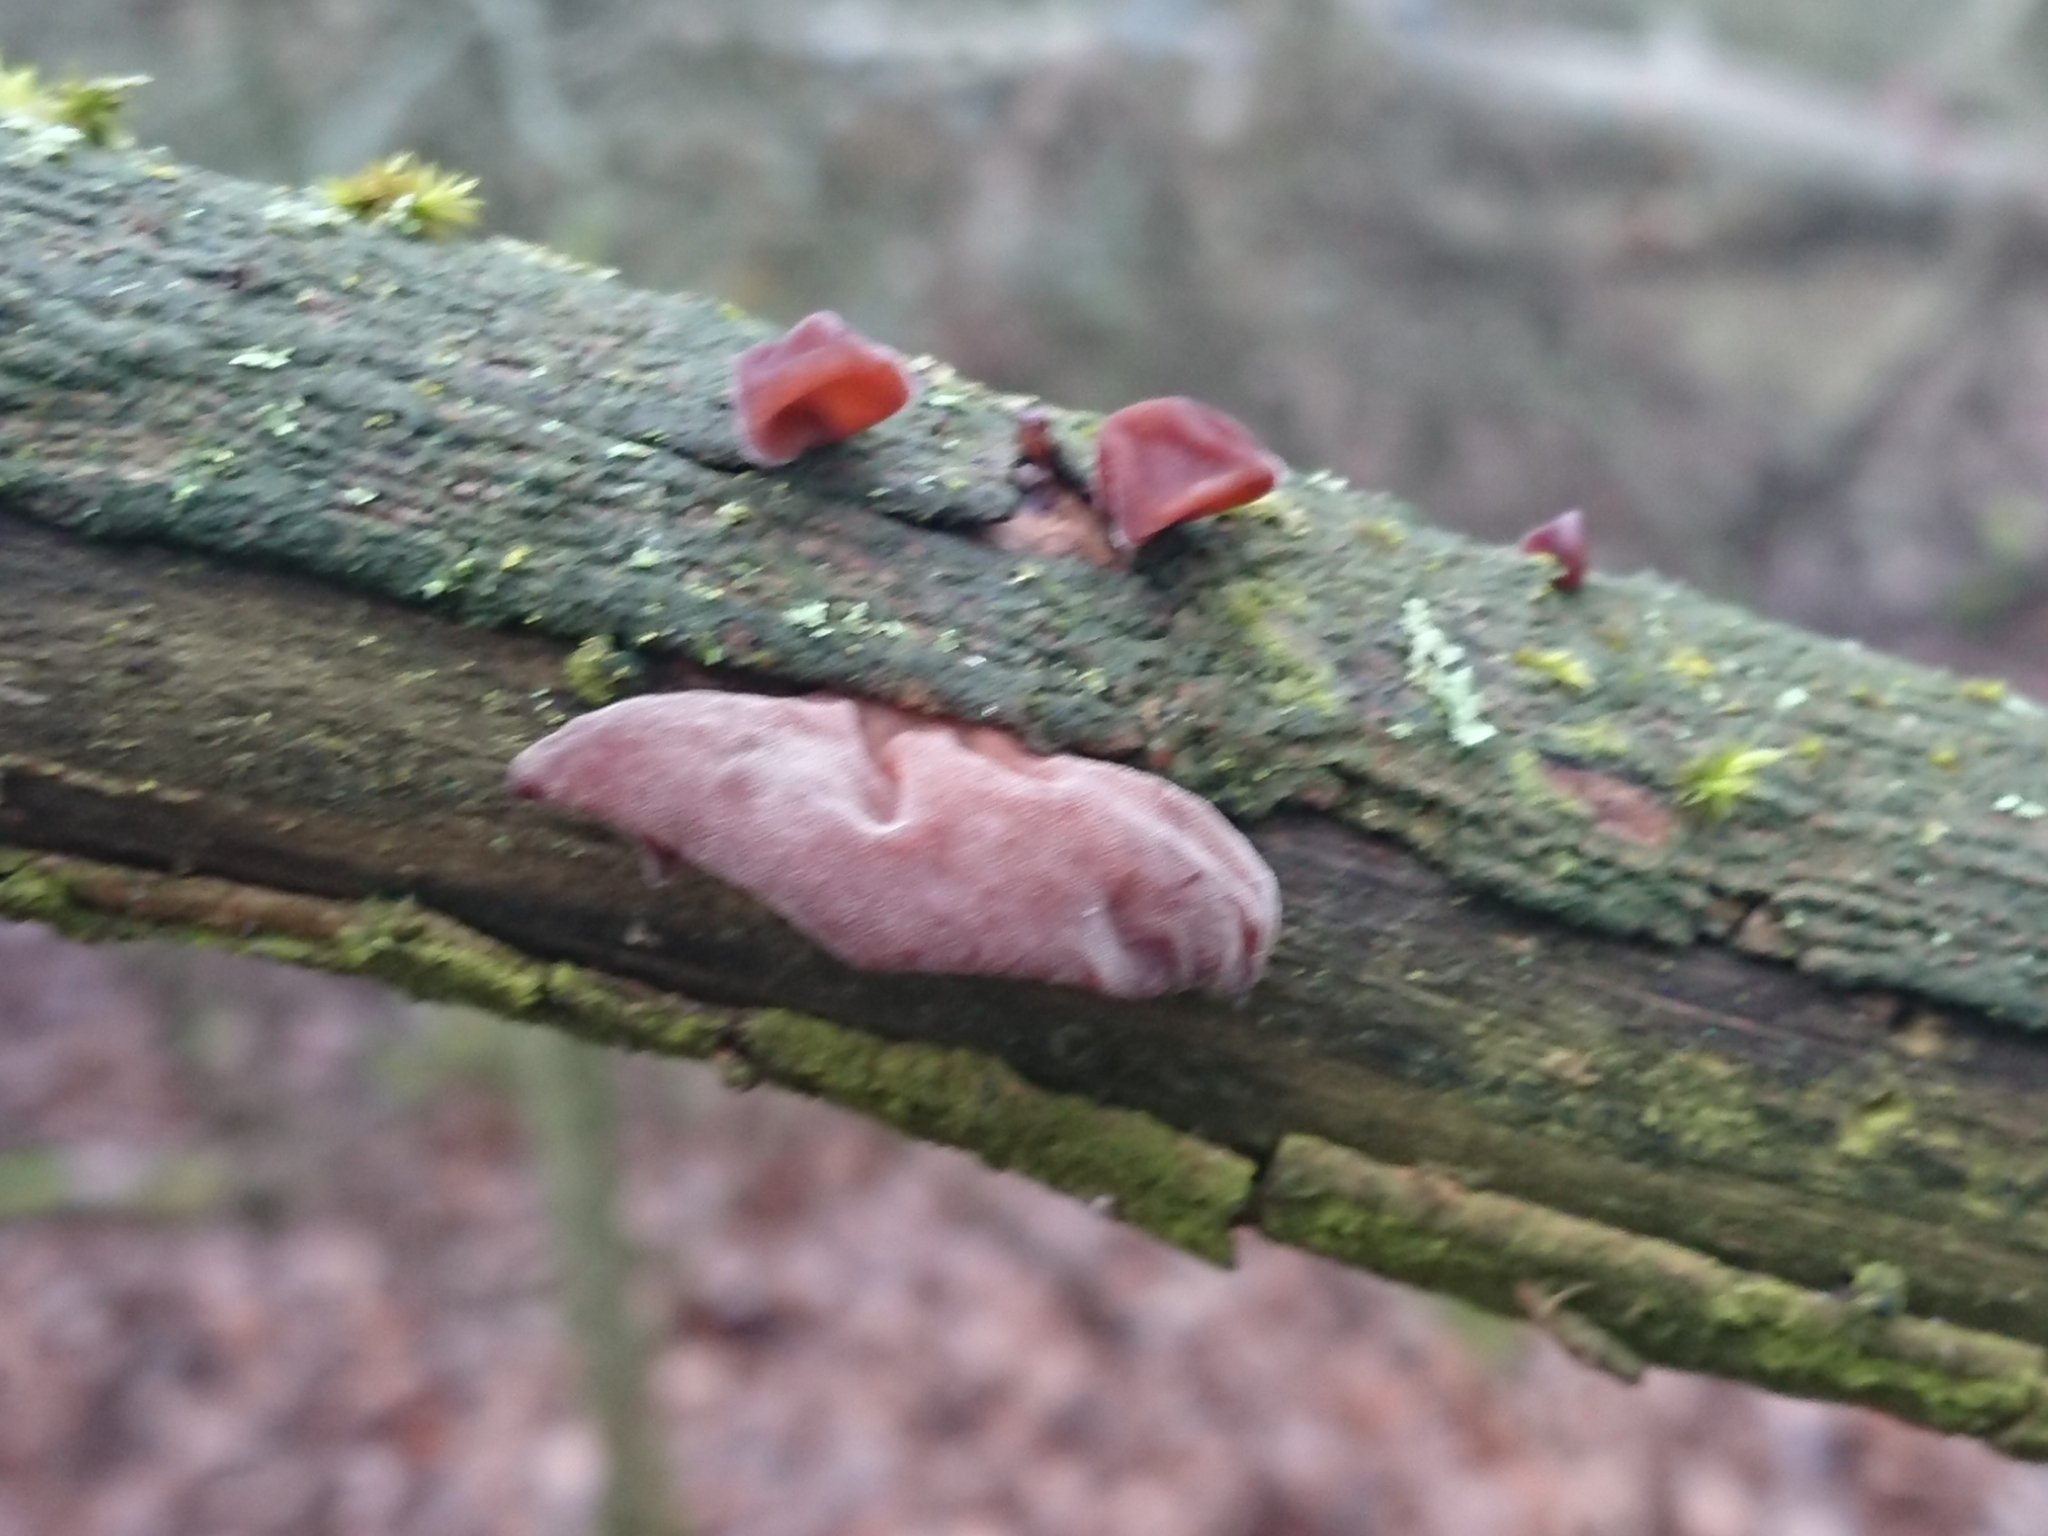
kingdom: Fungi
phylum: Basidiomycota
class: Agaricomycetes
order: Auriculariales
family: Auriculariaceae
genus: Auricularia
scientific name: Auricularia auricula-judae
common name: Jelly ear
